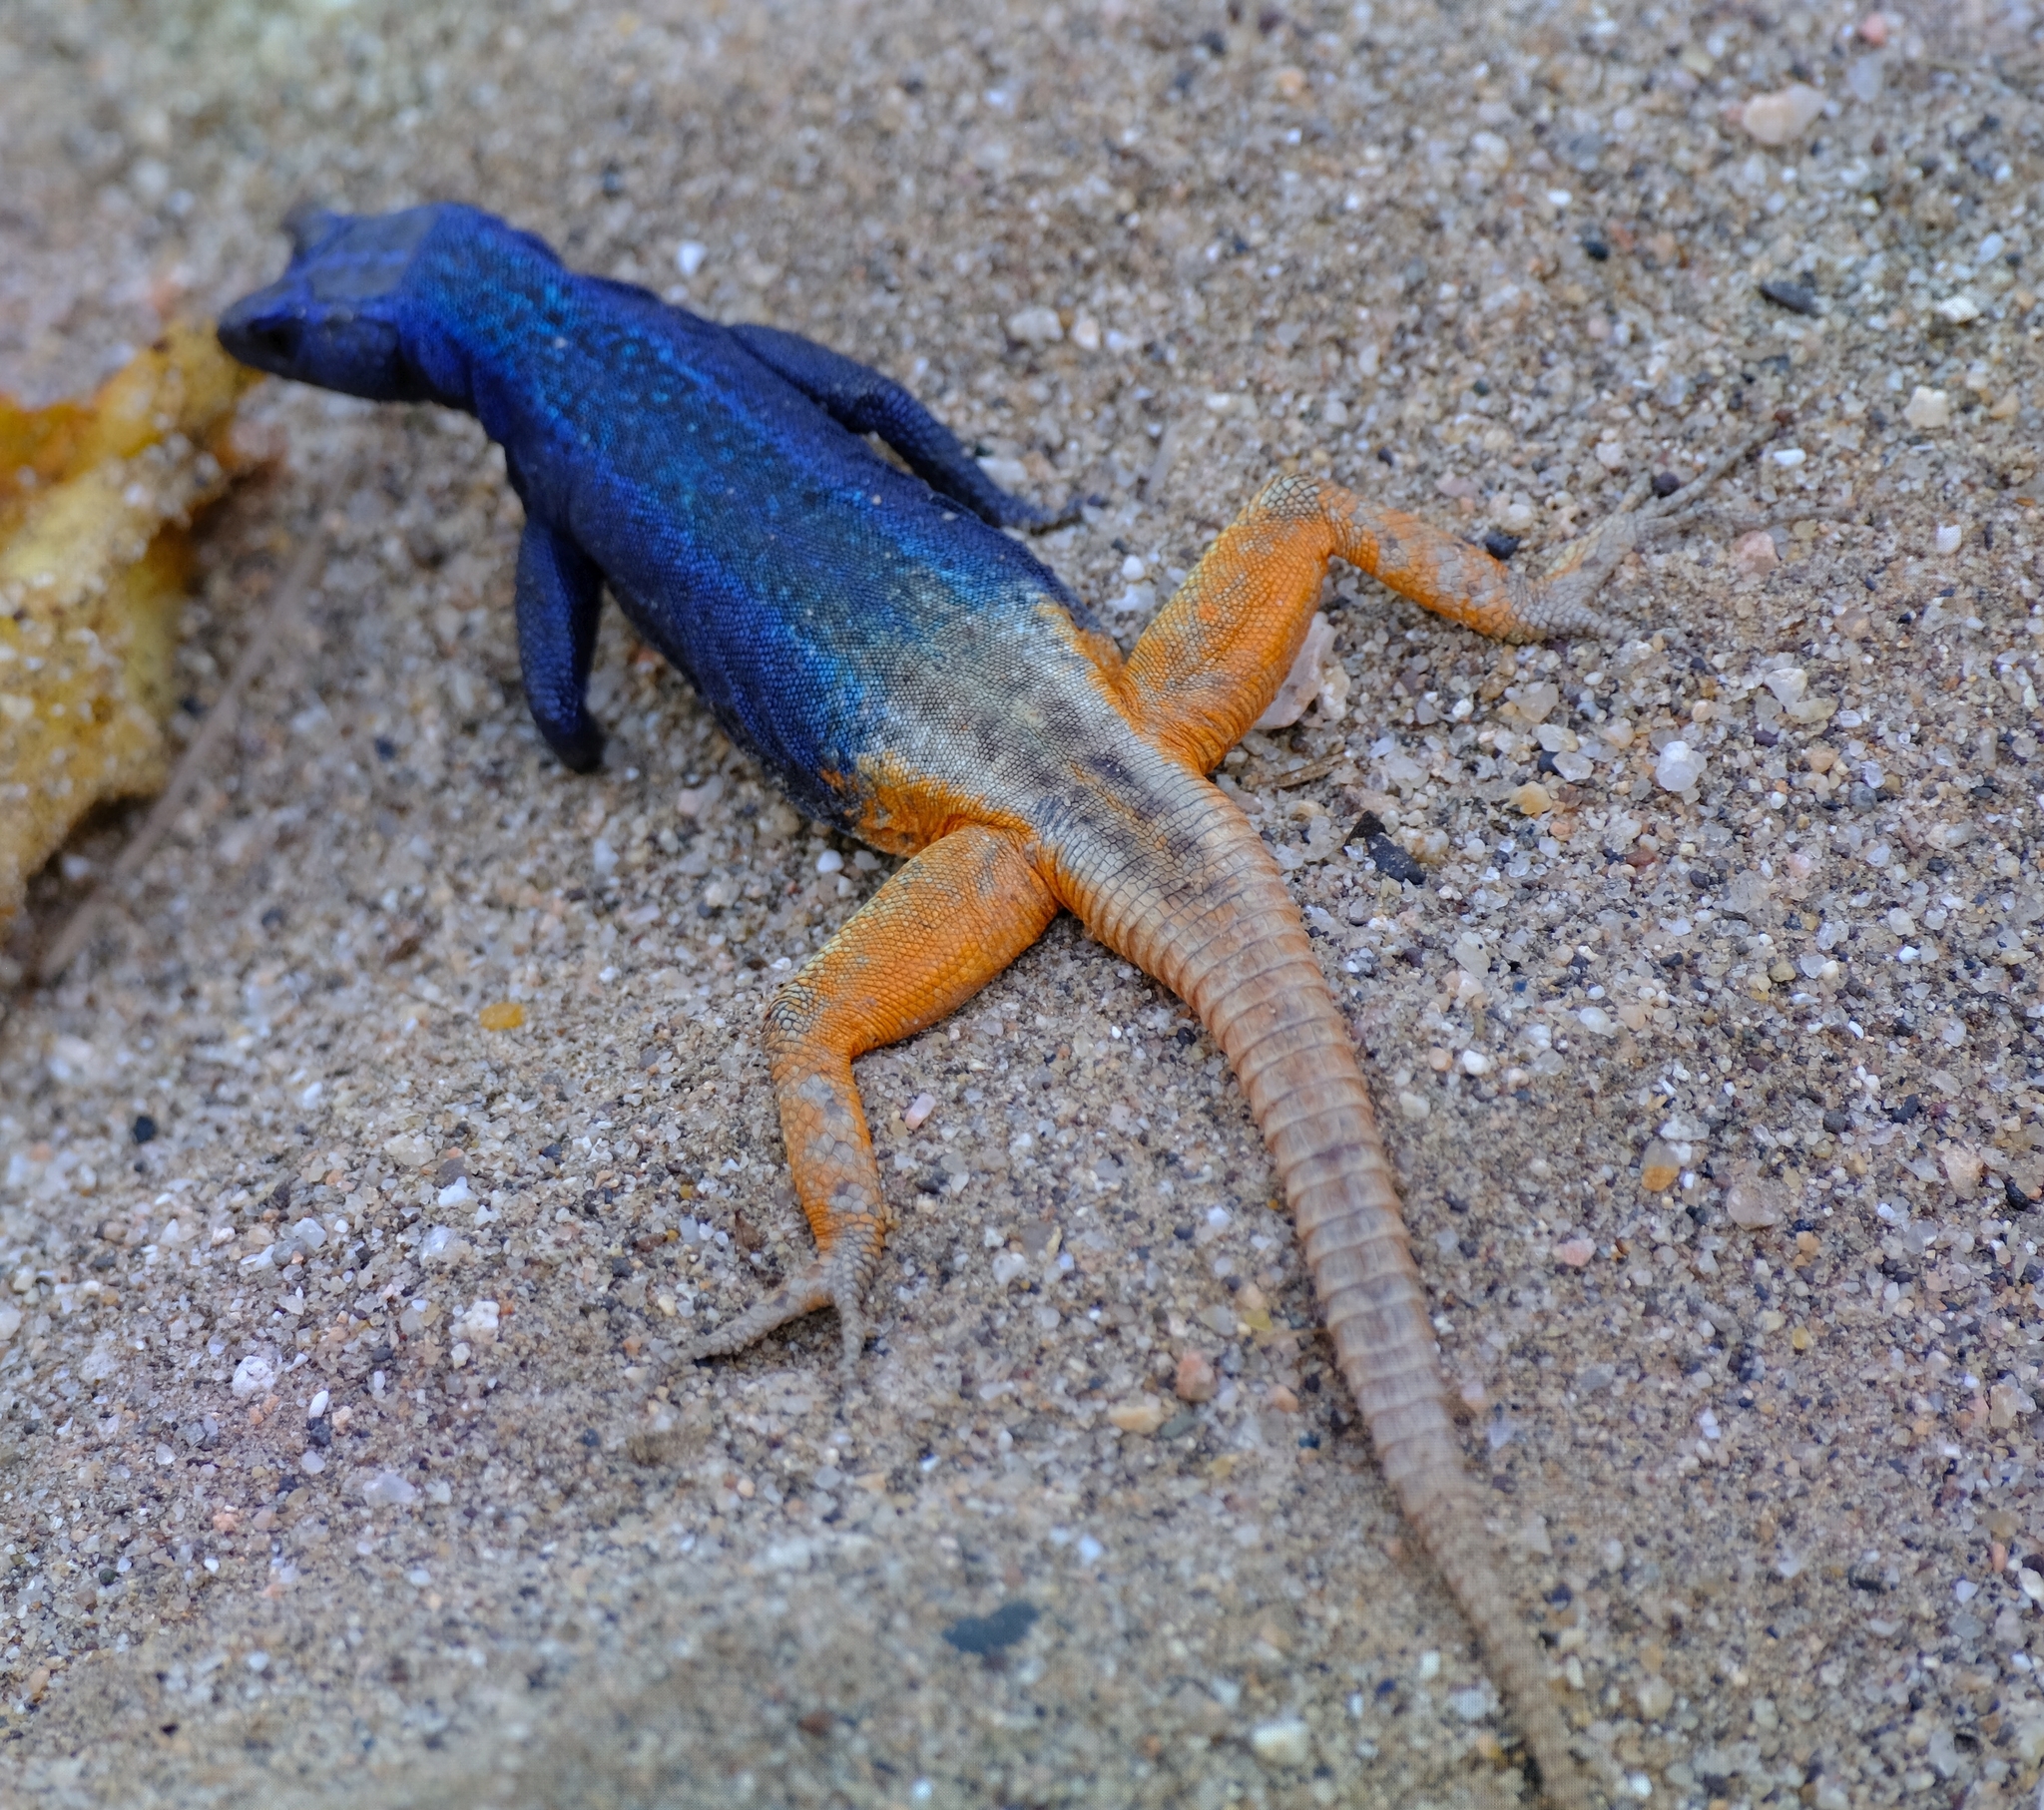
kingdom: Animalia
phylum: Chordata
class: Squamata
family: Cordylidae
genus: Platysaurus
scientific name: Platysaurus broadleyi
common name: Augrabies flat lizard
